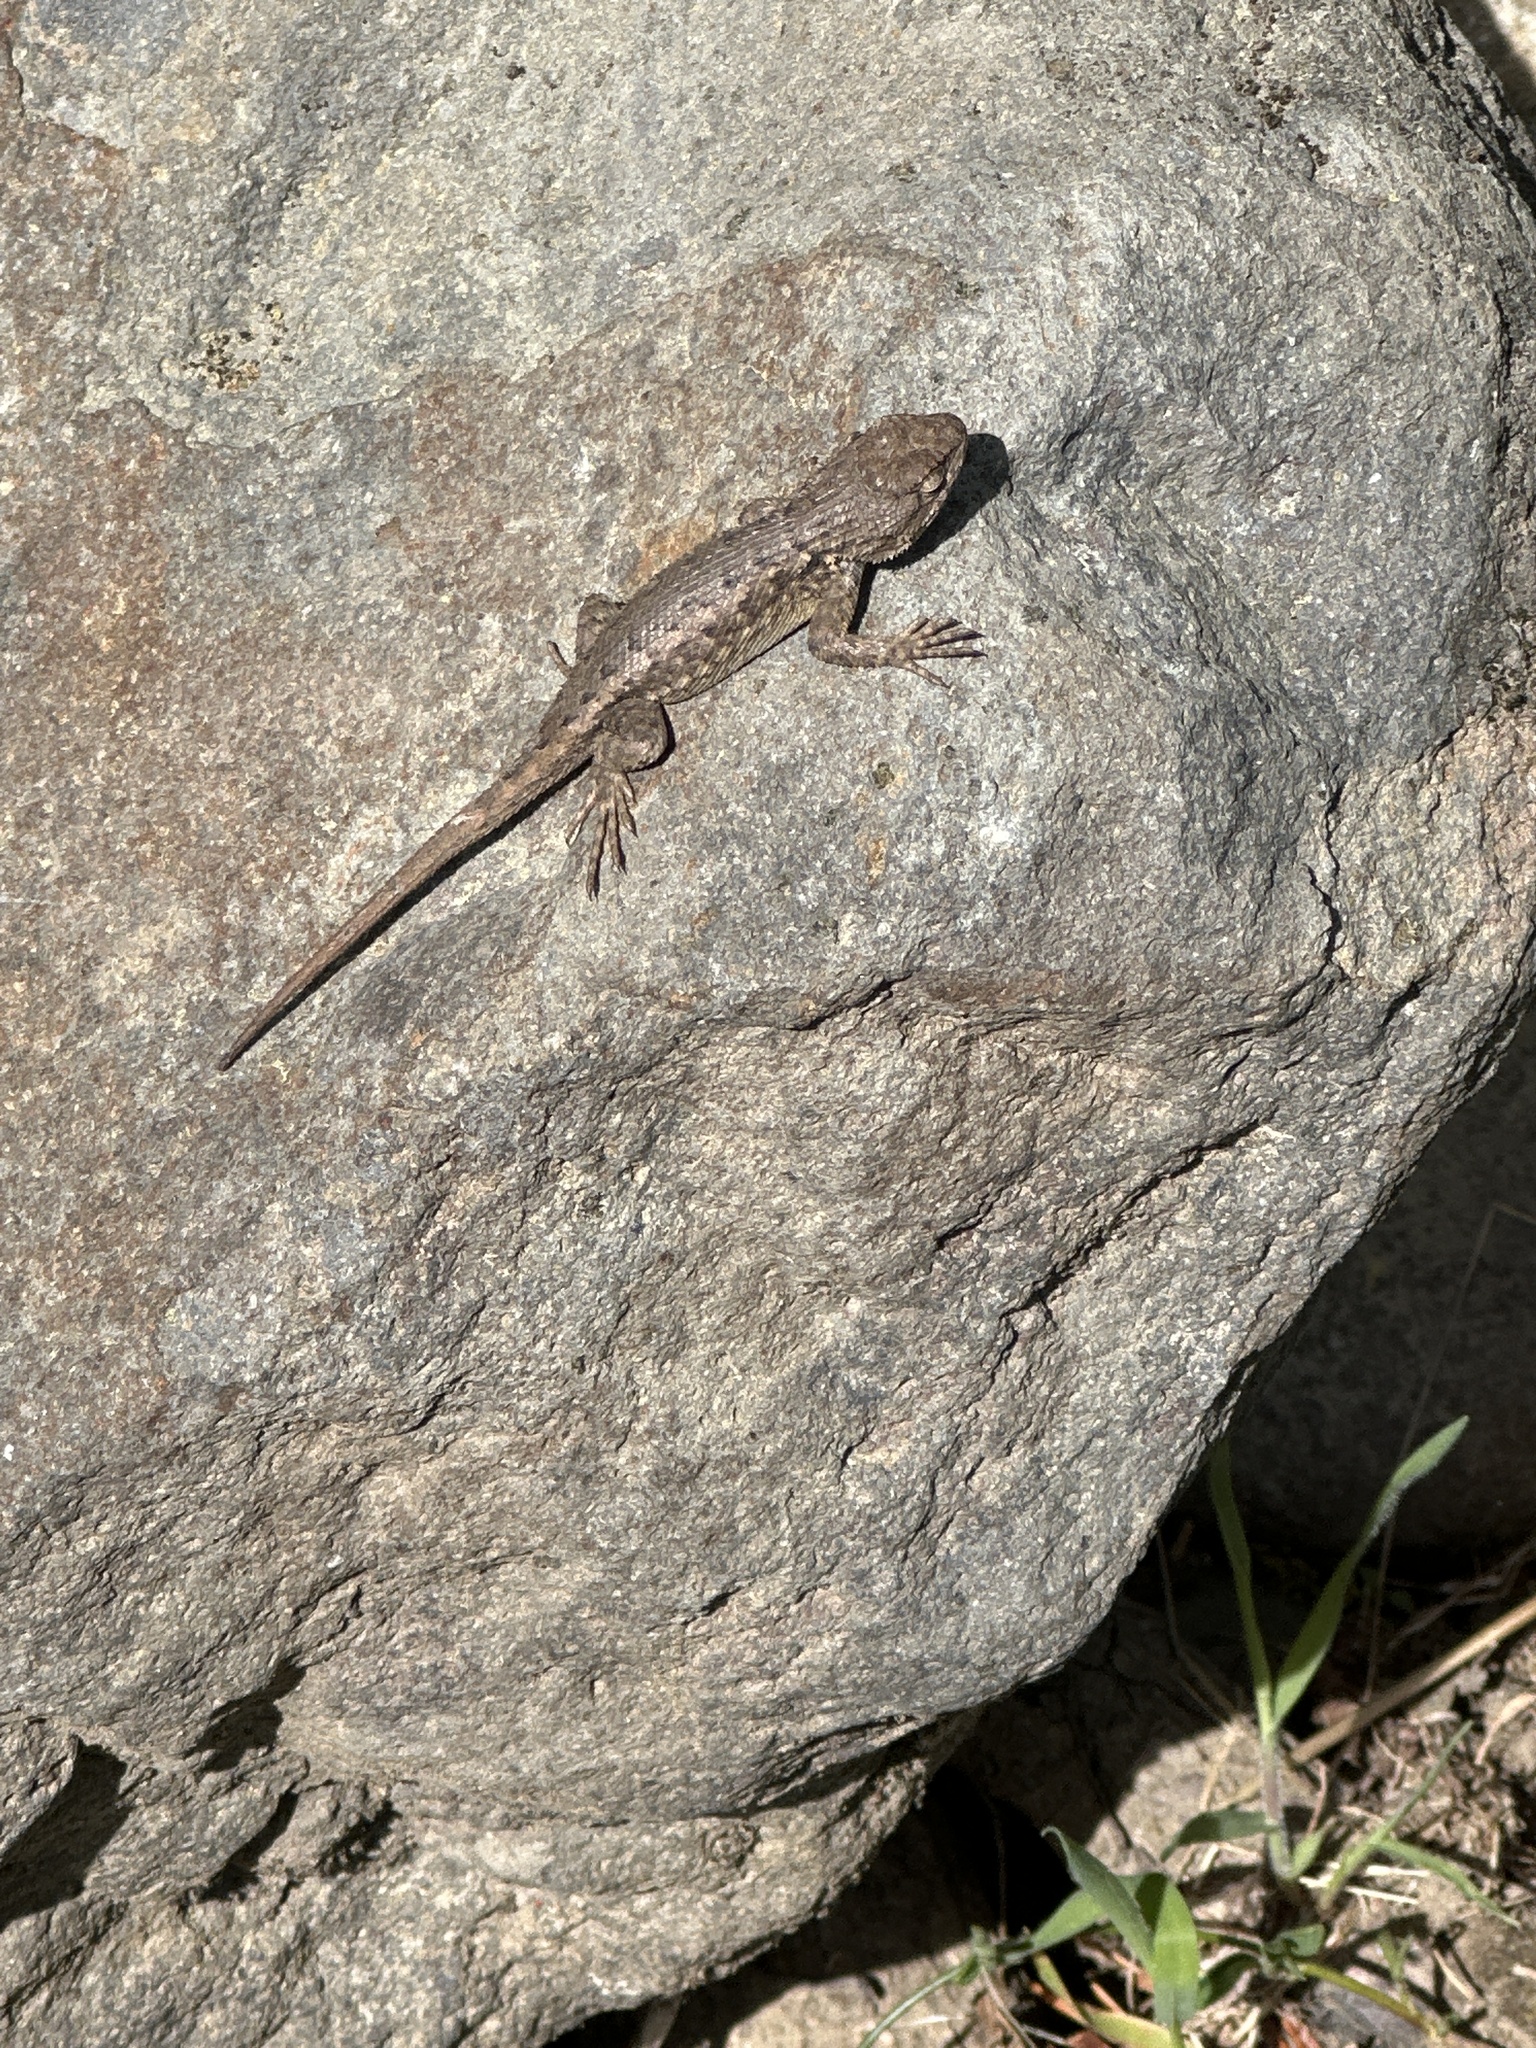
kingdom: Animalia
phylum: Chordata
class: Squamata
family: Phrynosomatidae
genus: Sceloporus
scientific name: Sceloporus occidentalis
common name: Western fence lizard
